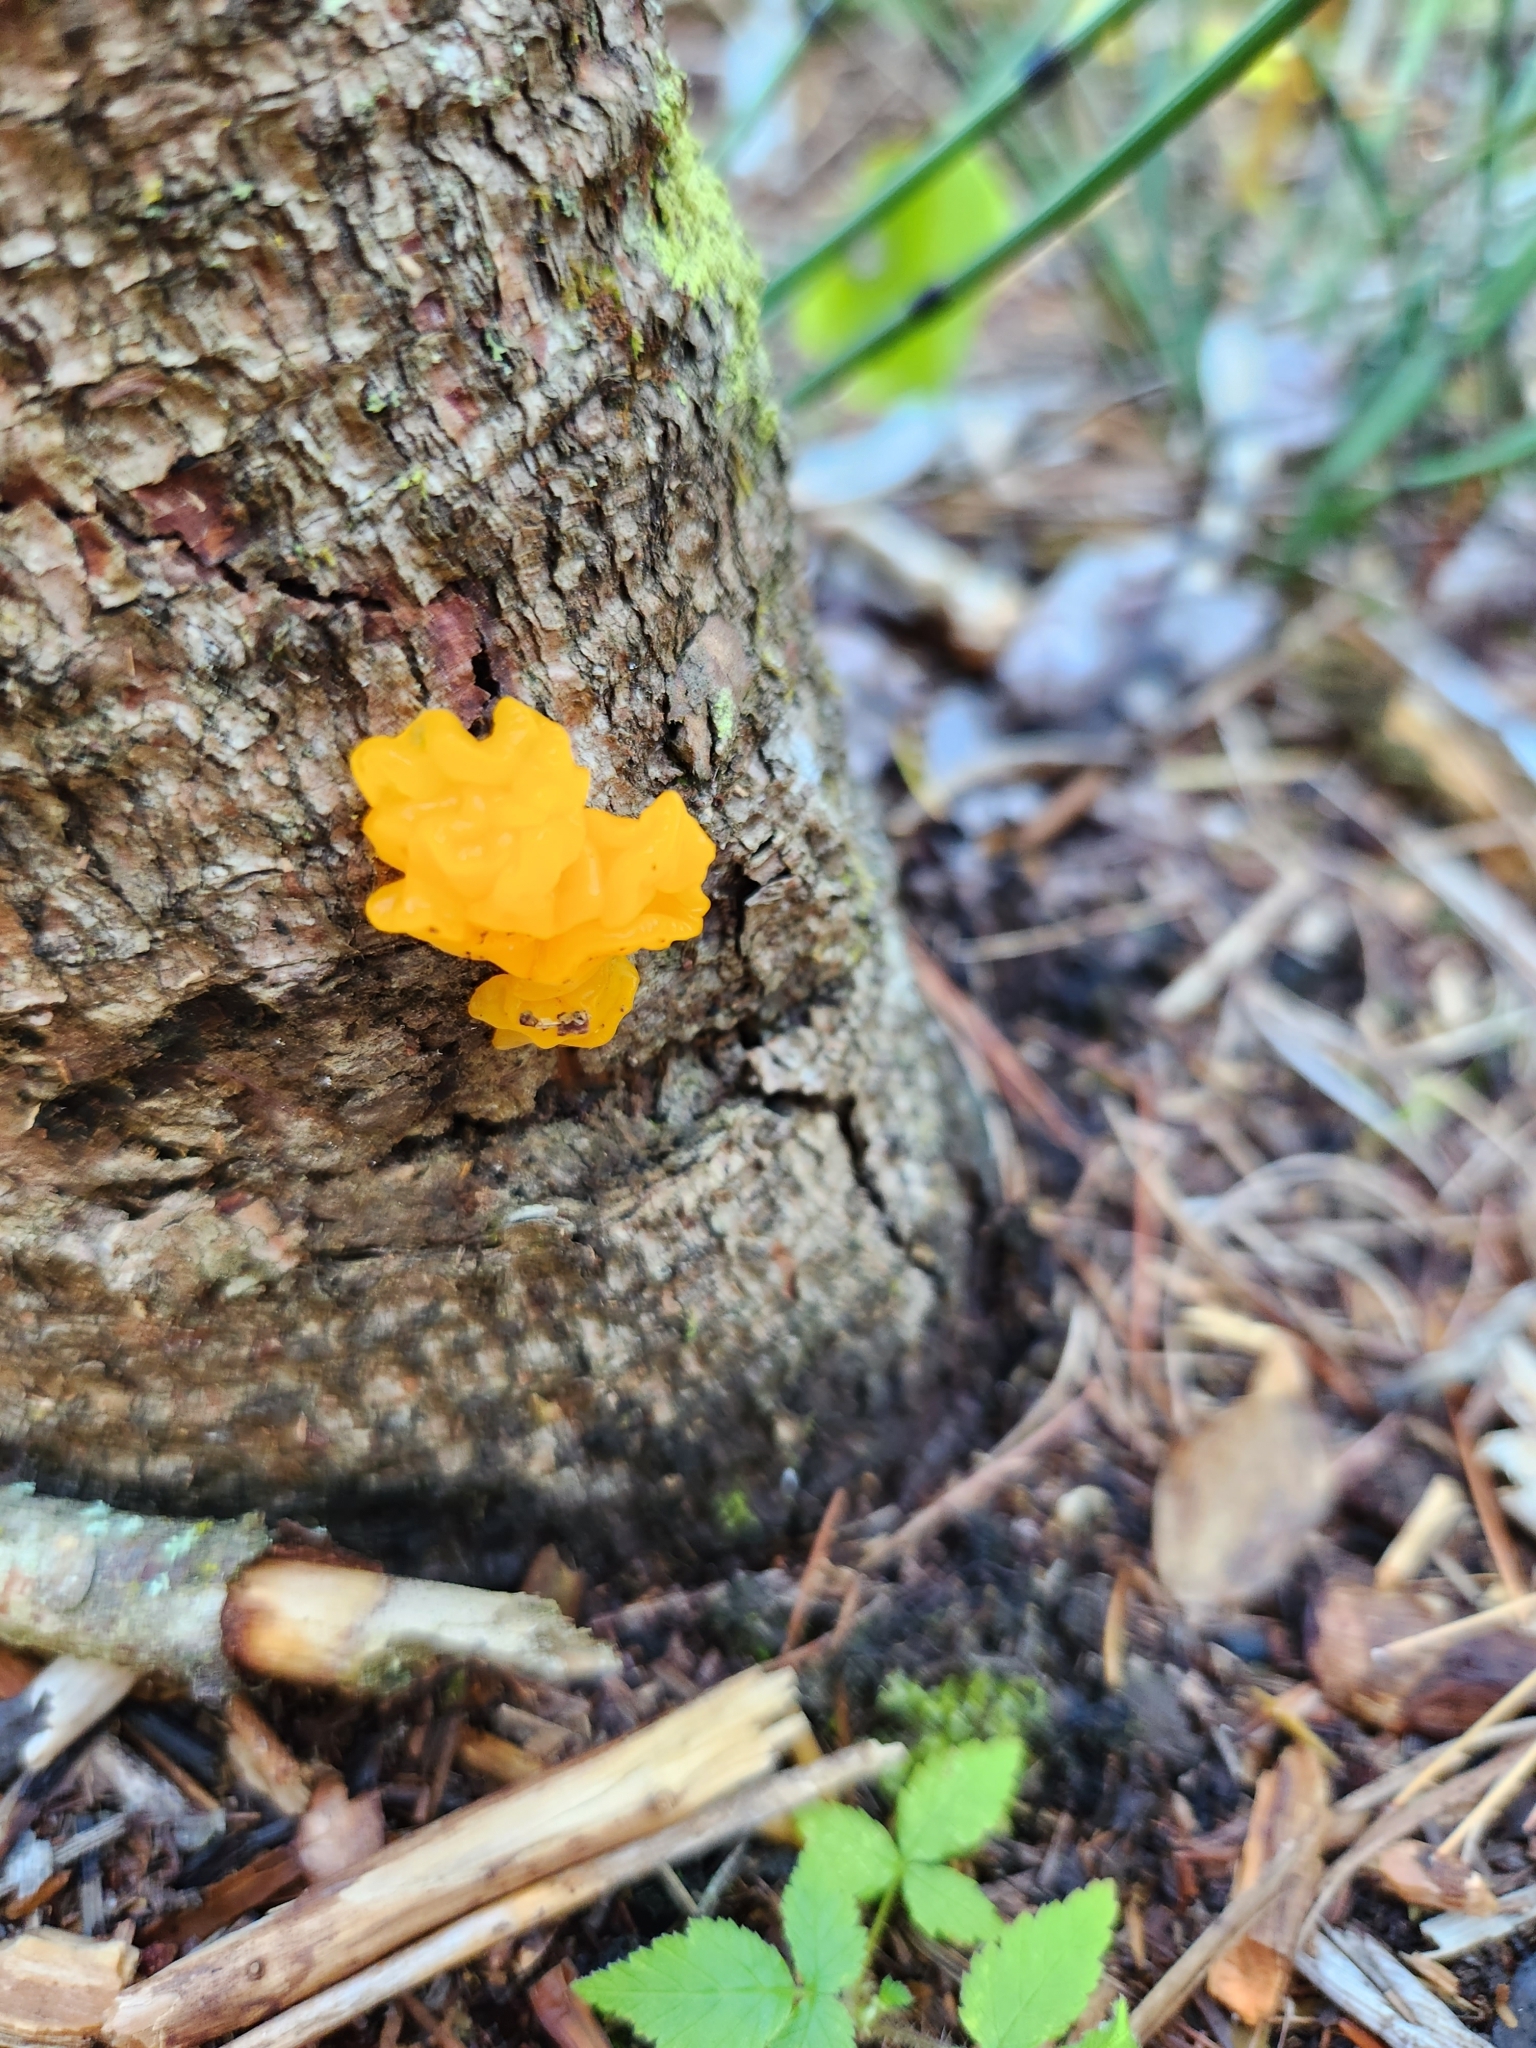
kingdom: Fungi
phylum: Basidiomycota
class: Dacrymycetes
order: Dacrymycetales
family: Dacrymycetaceae
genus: Dacrymyces
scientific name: Dacrymyces chrysospermus
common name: Orange jelly spot
